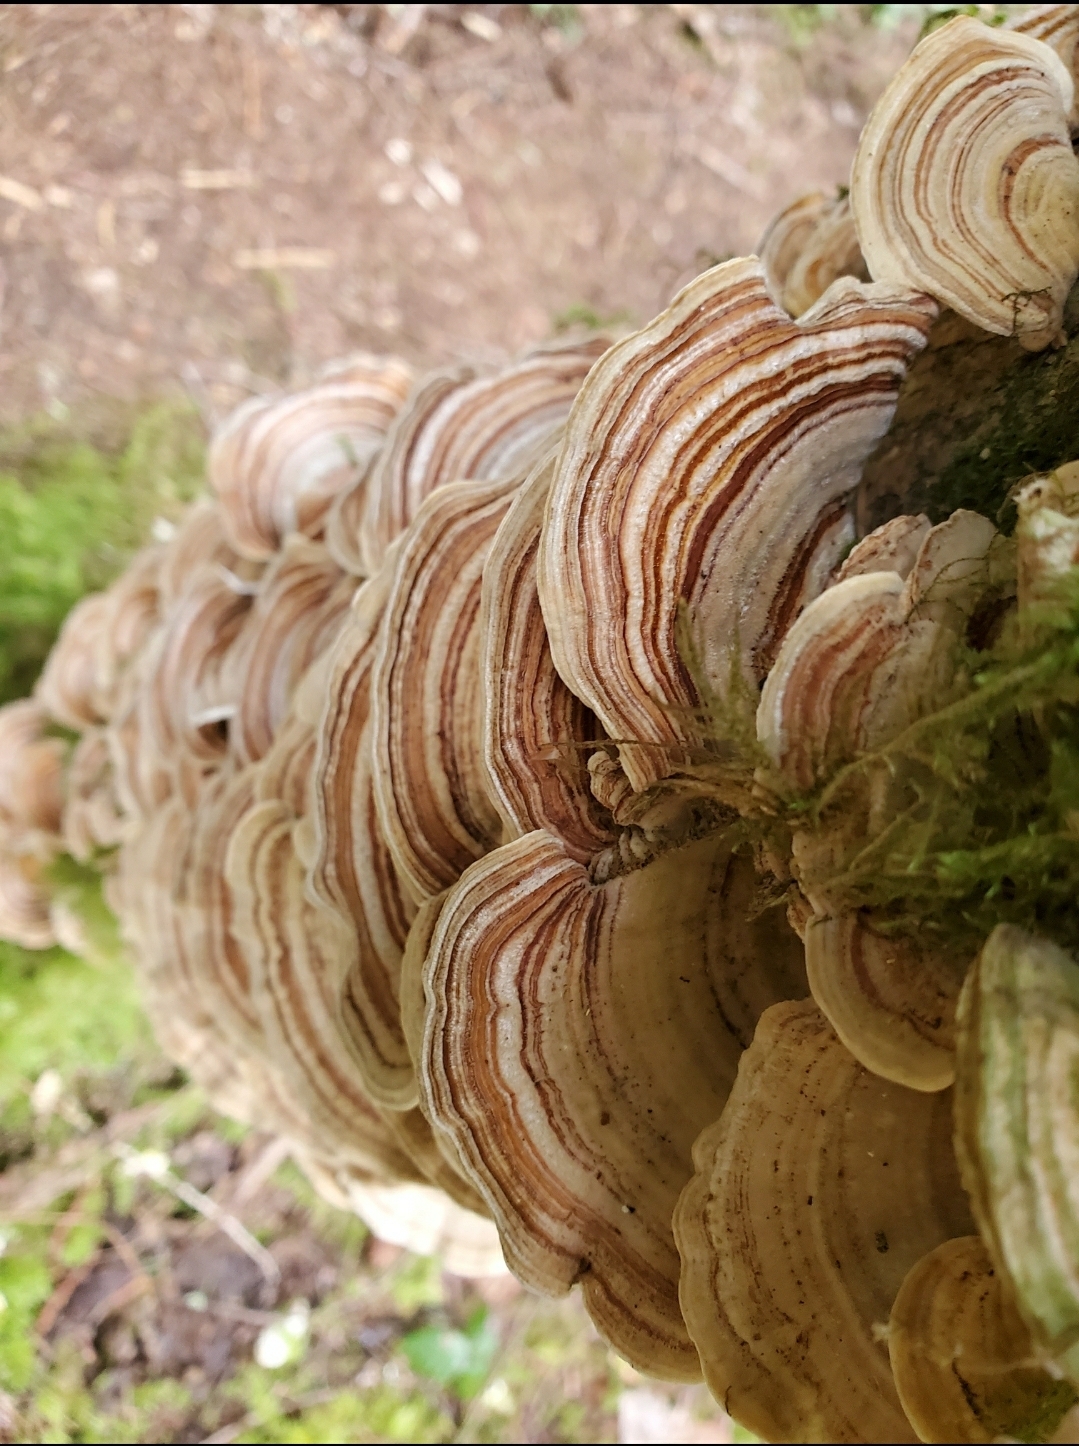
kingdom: Fungi
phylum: Basidiomycota
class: Agaricomycetes
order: Polyporales
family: Polyporaceae
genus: Trametes
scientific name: Trametes versicolor
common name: Turkeytail
